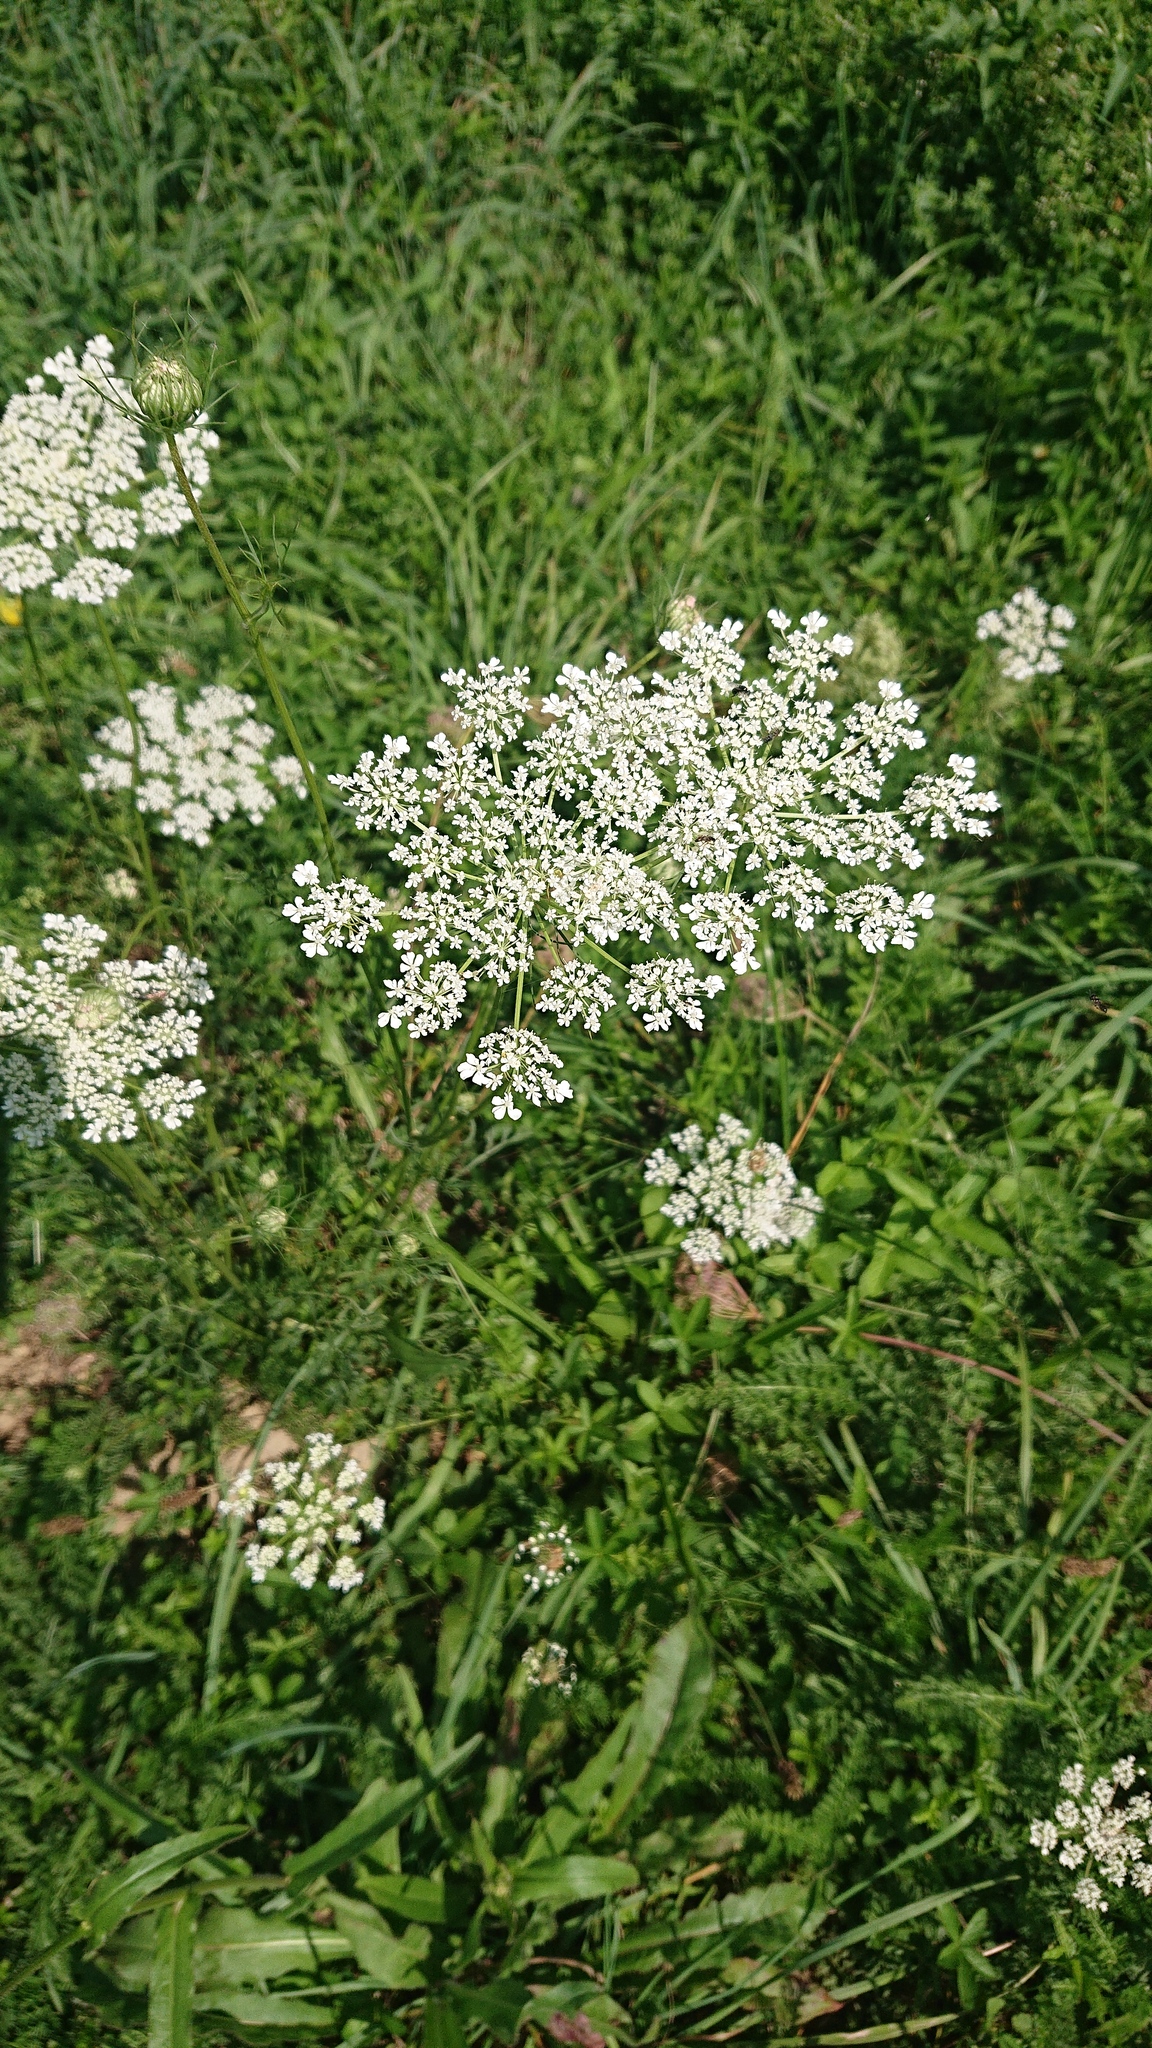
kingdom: Plantae
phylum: Tracheophyta
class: Magnoliopsida
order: Apiales
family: Apiaceae
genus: Daucus
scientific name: Daucus carota
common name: Wild carrot
